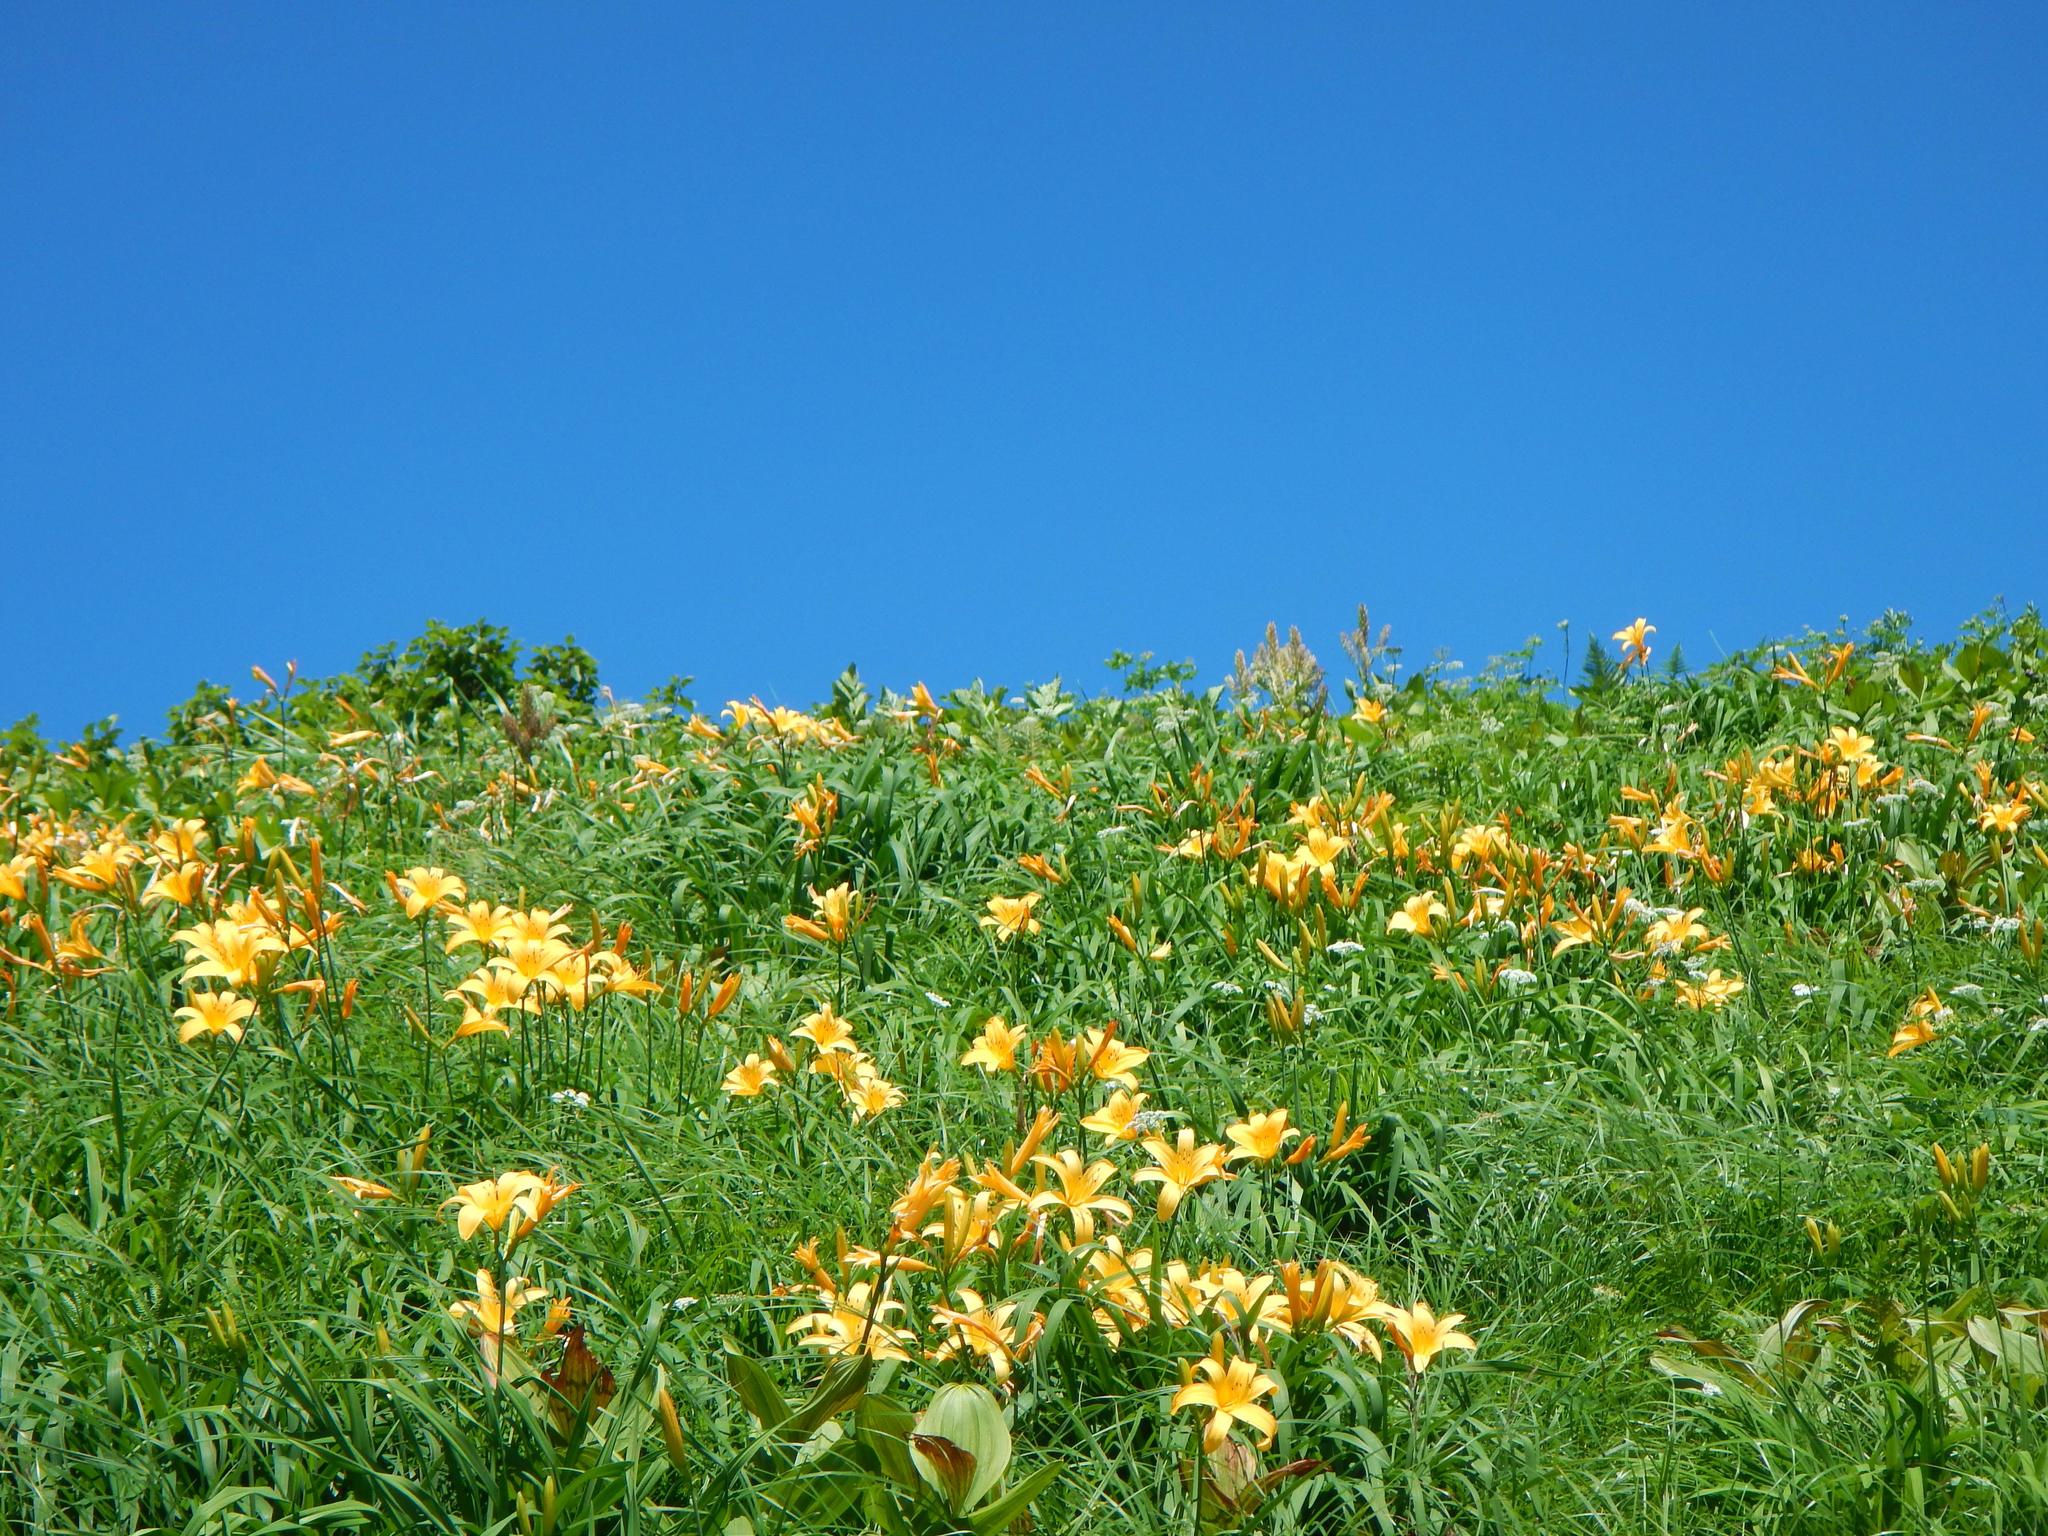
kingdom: Plantae
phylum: Tracheophyta
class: Liliopsida
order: Asparagales
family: Asphodelaceae
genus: Hemerocallis
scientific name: Hemerocallis middendorffii
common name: Amur day-lily
